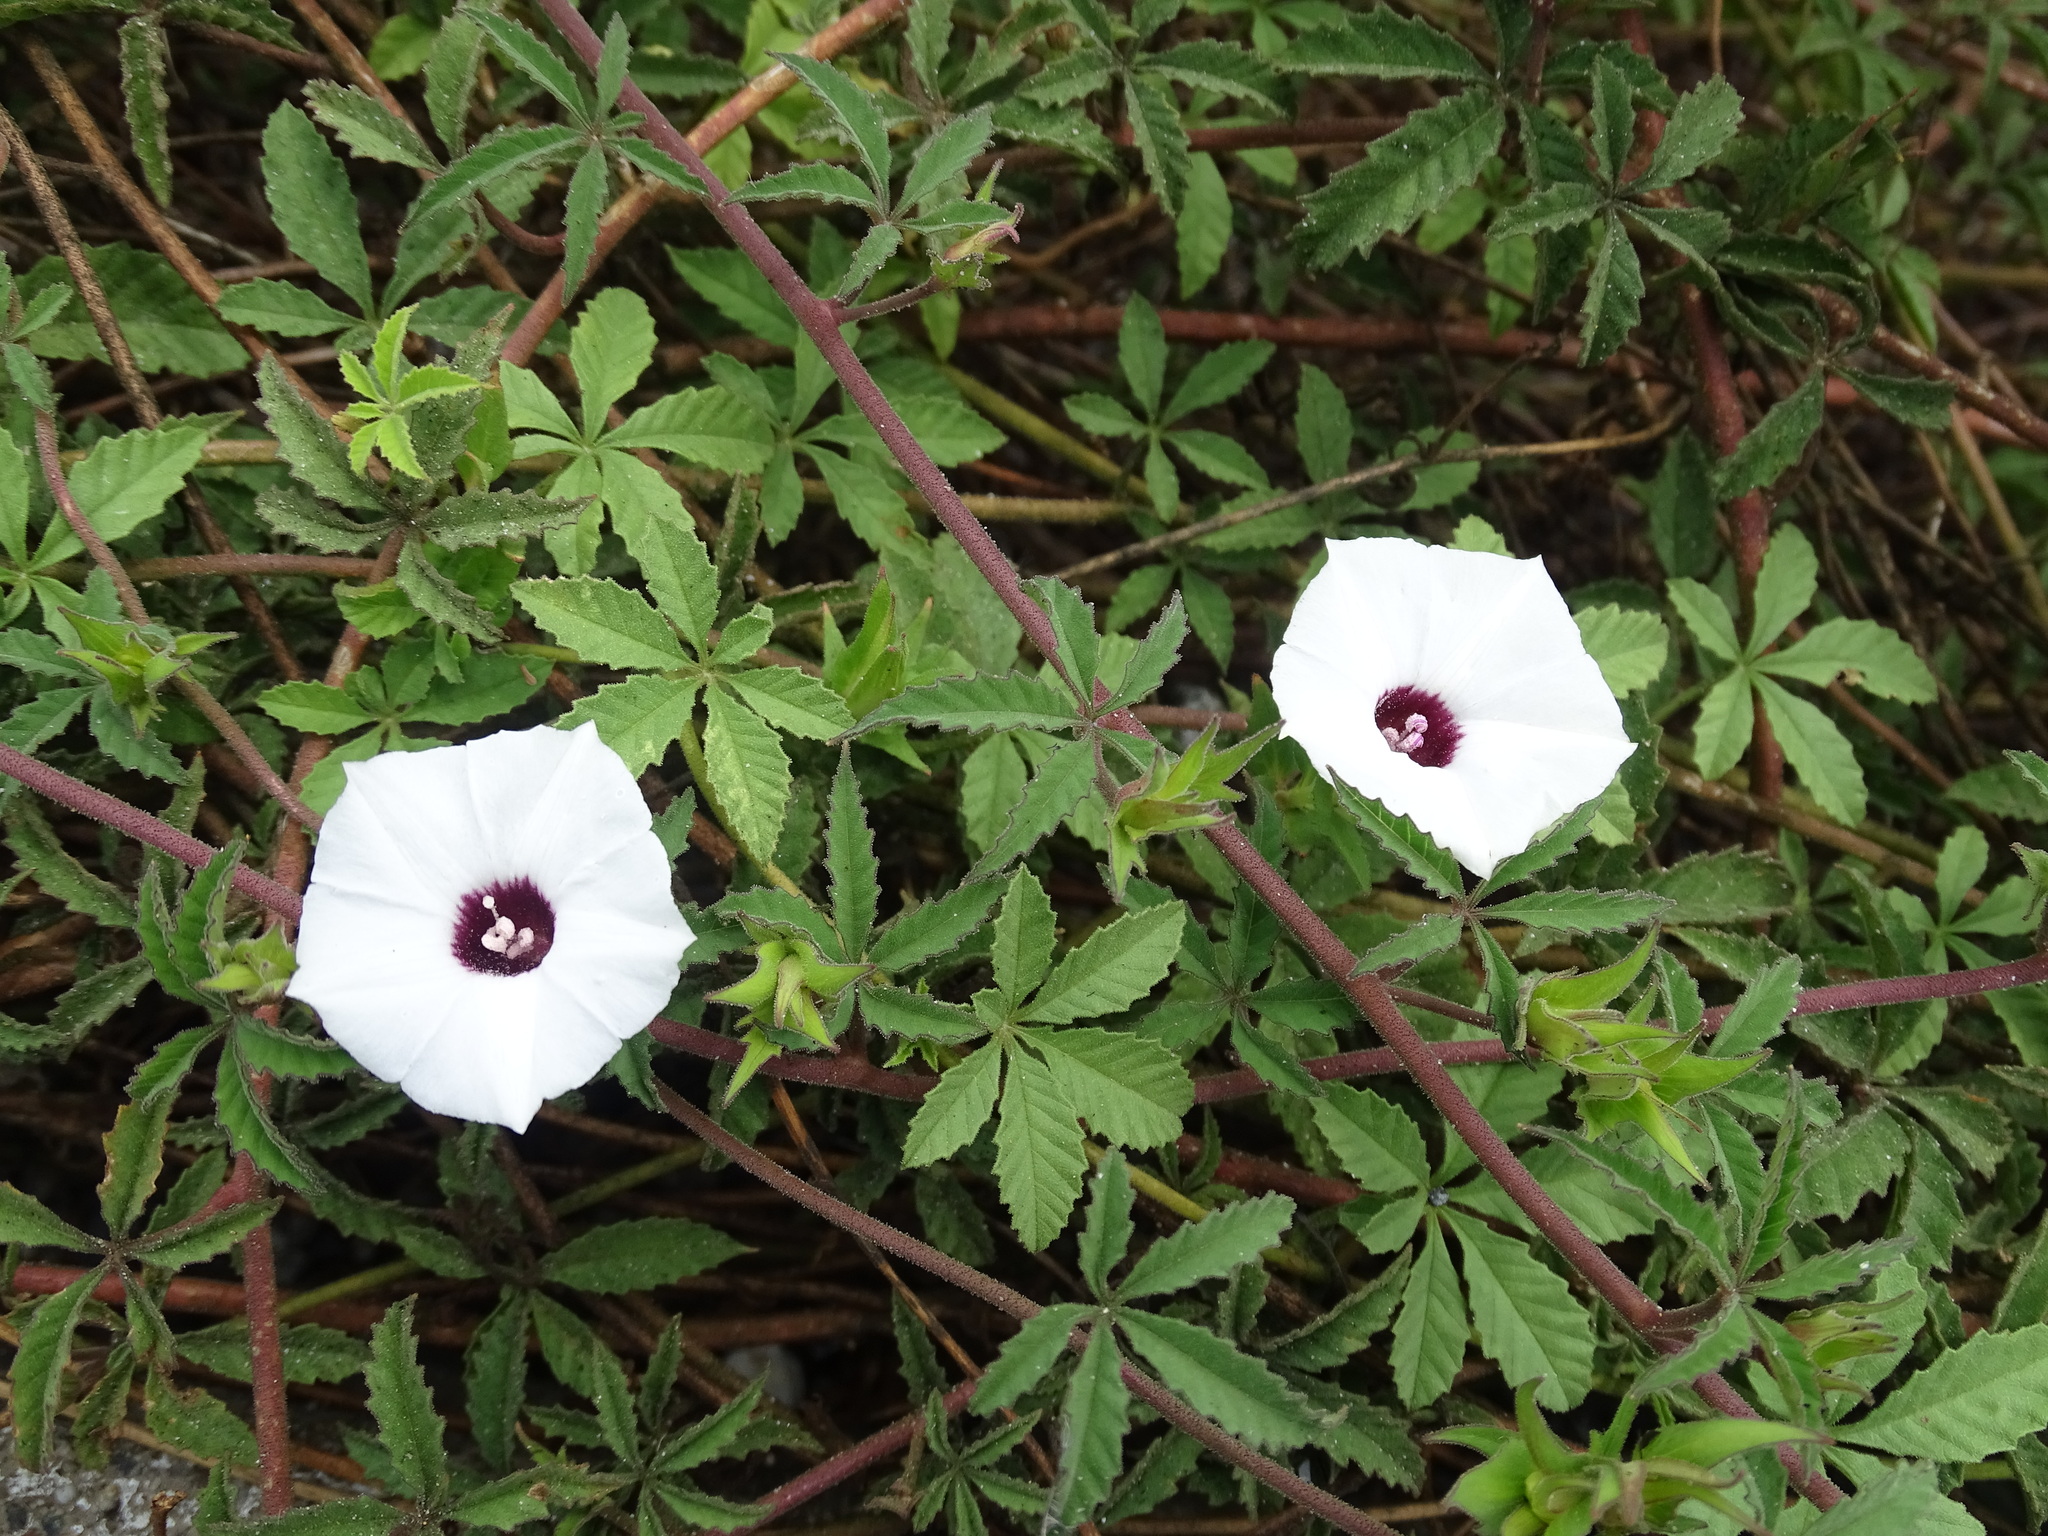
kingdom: Plantae
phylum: Tracheophyta
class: Magnoliopsida
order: Solanales
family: Convolvulaceae
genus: Distimake
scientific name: Distimake lobulibracteatus
